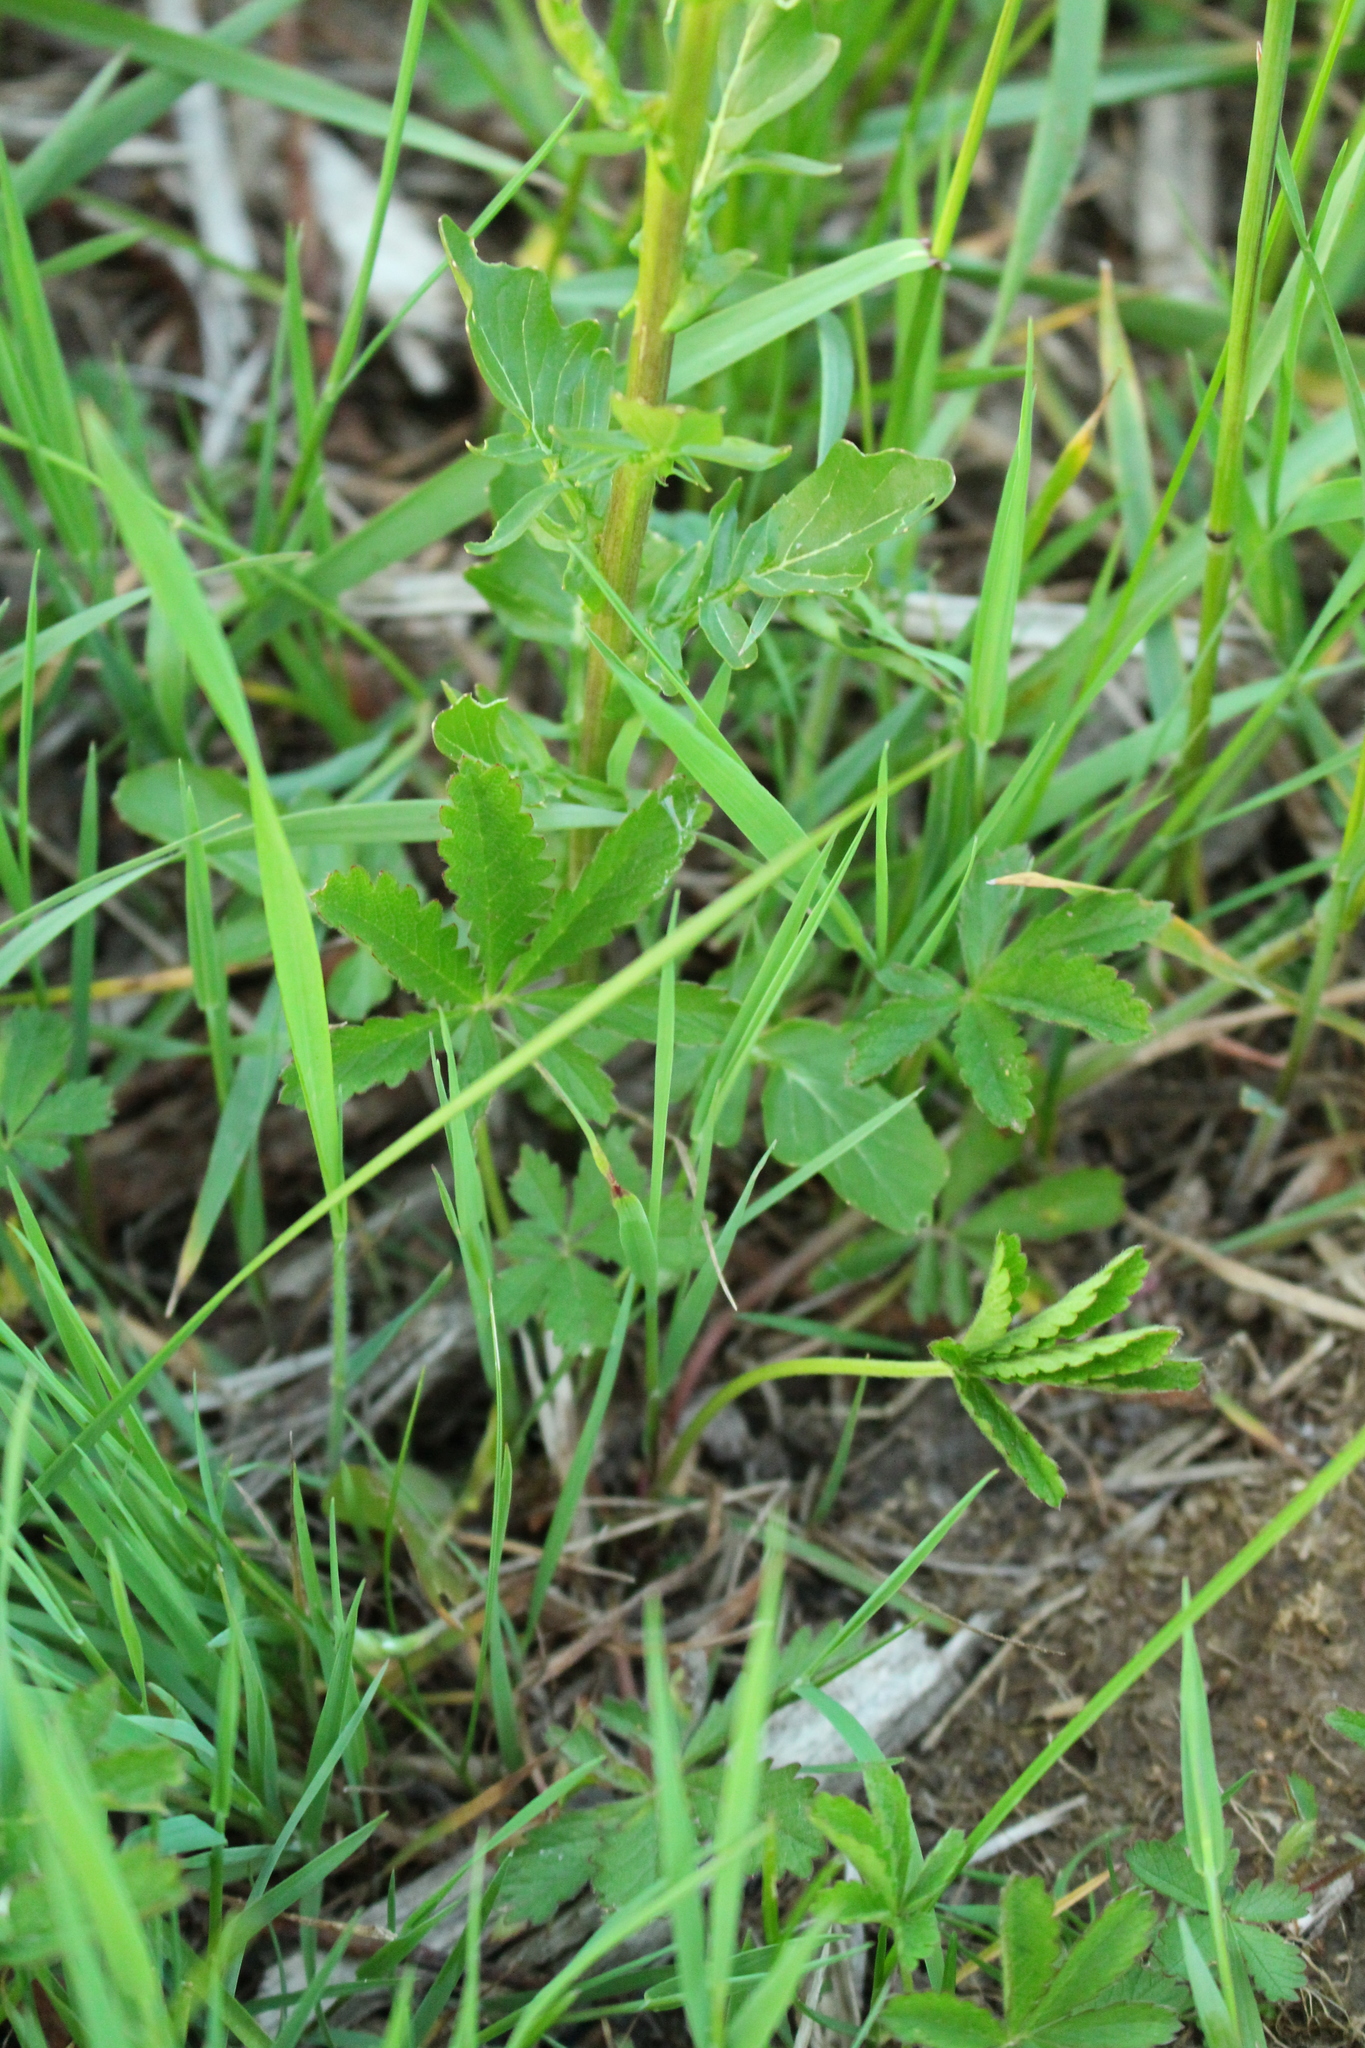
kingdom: Plantae
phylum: Tracheophyta
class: Magnoliopsida
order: Brassicales
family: Brassicaceae
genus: Barbarea
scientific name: Barbarea vulgaris
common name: Cressy-greens
